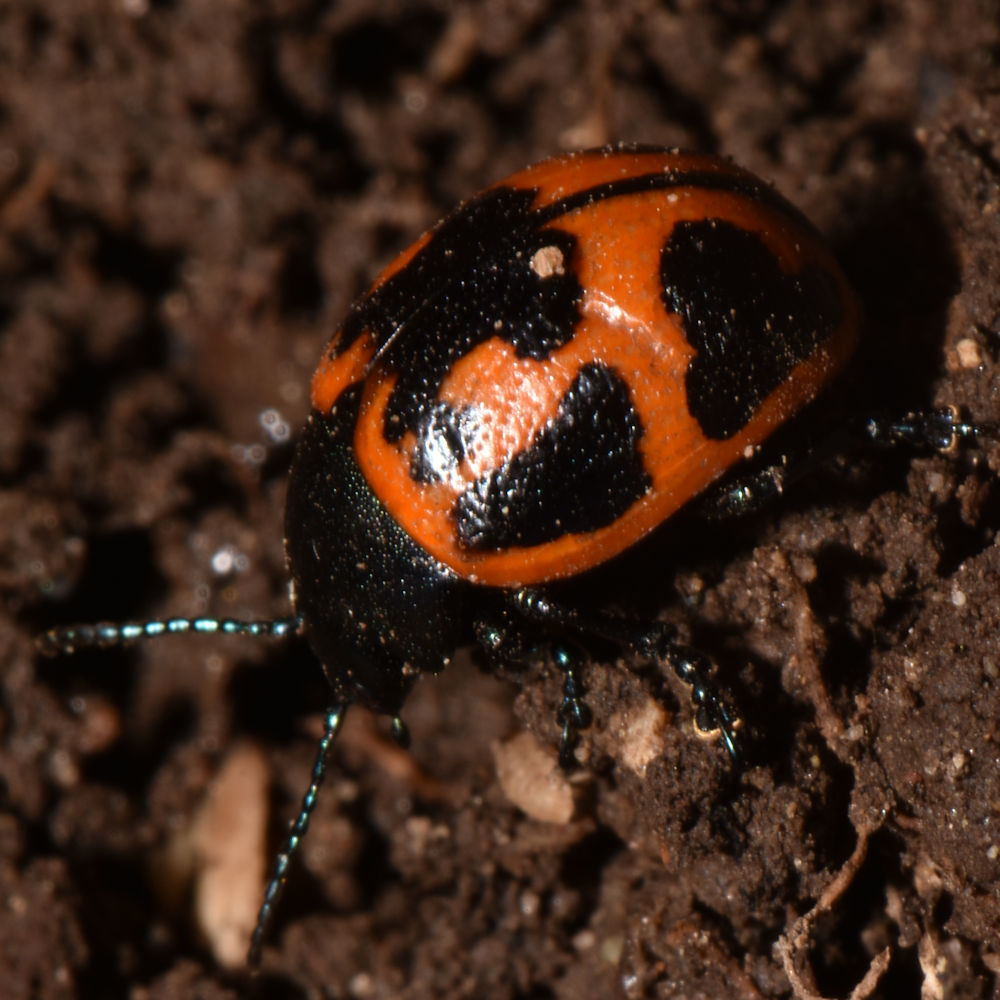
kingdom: Animalia
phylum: Arthropoda
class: Insecta
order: Coleoptera
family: Chrysomelidae
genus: Labidomera
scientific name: Labidomera clivicollis
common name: Swamp milkweed leaf beetle
